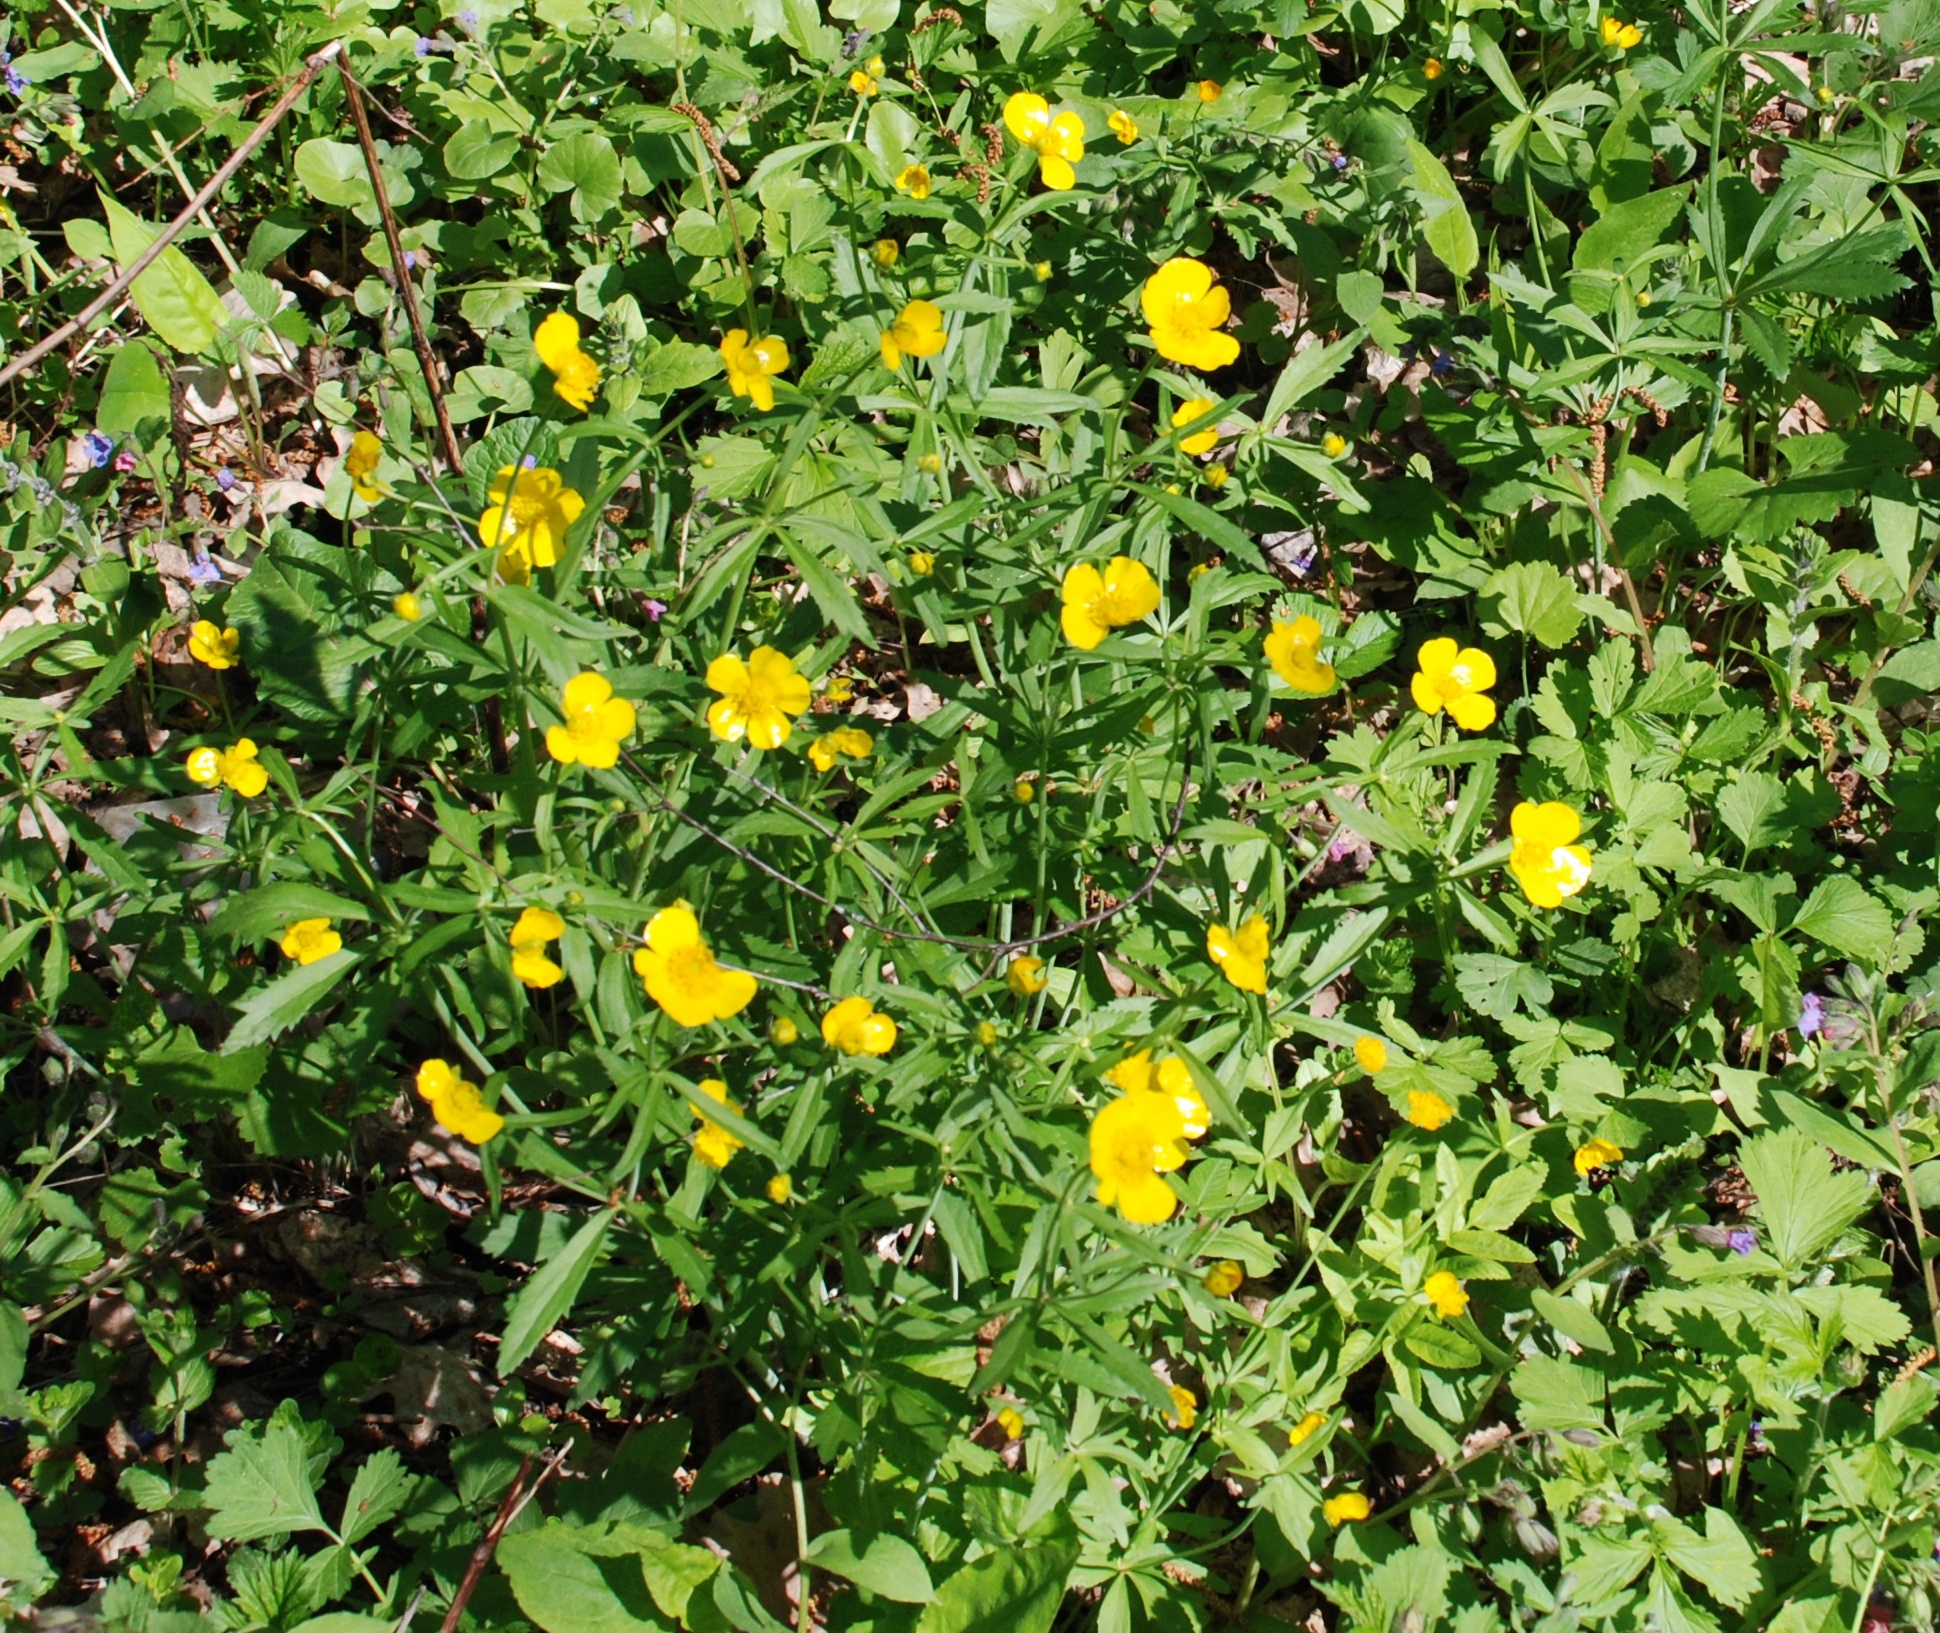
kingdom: Plantae
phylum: Tracheophyta
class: Magnoliopsida
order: Ranunculales
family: Ranunculaceae
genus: Ranunculus
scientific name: Ranunculus cassubicus
